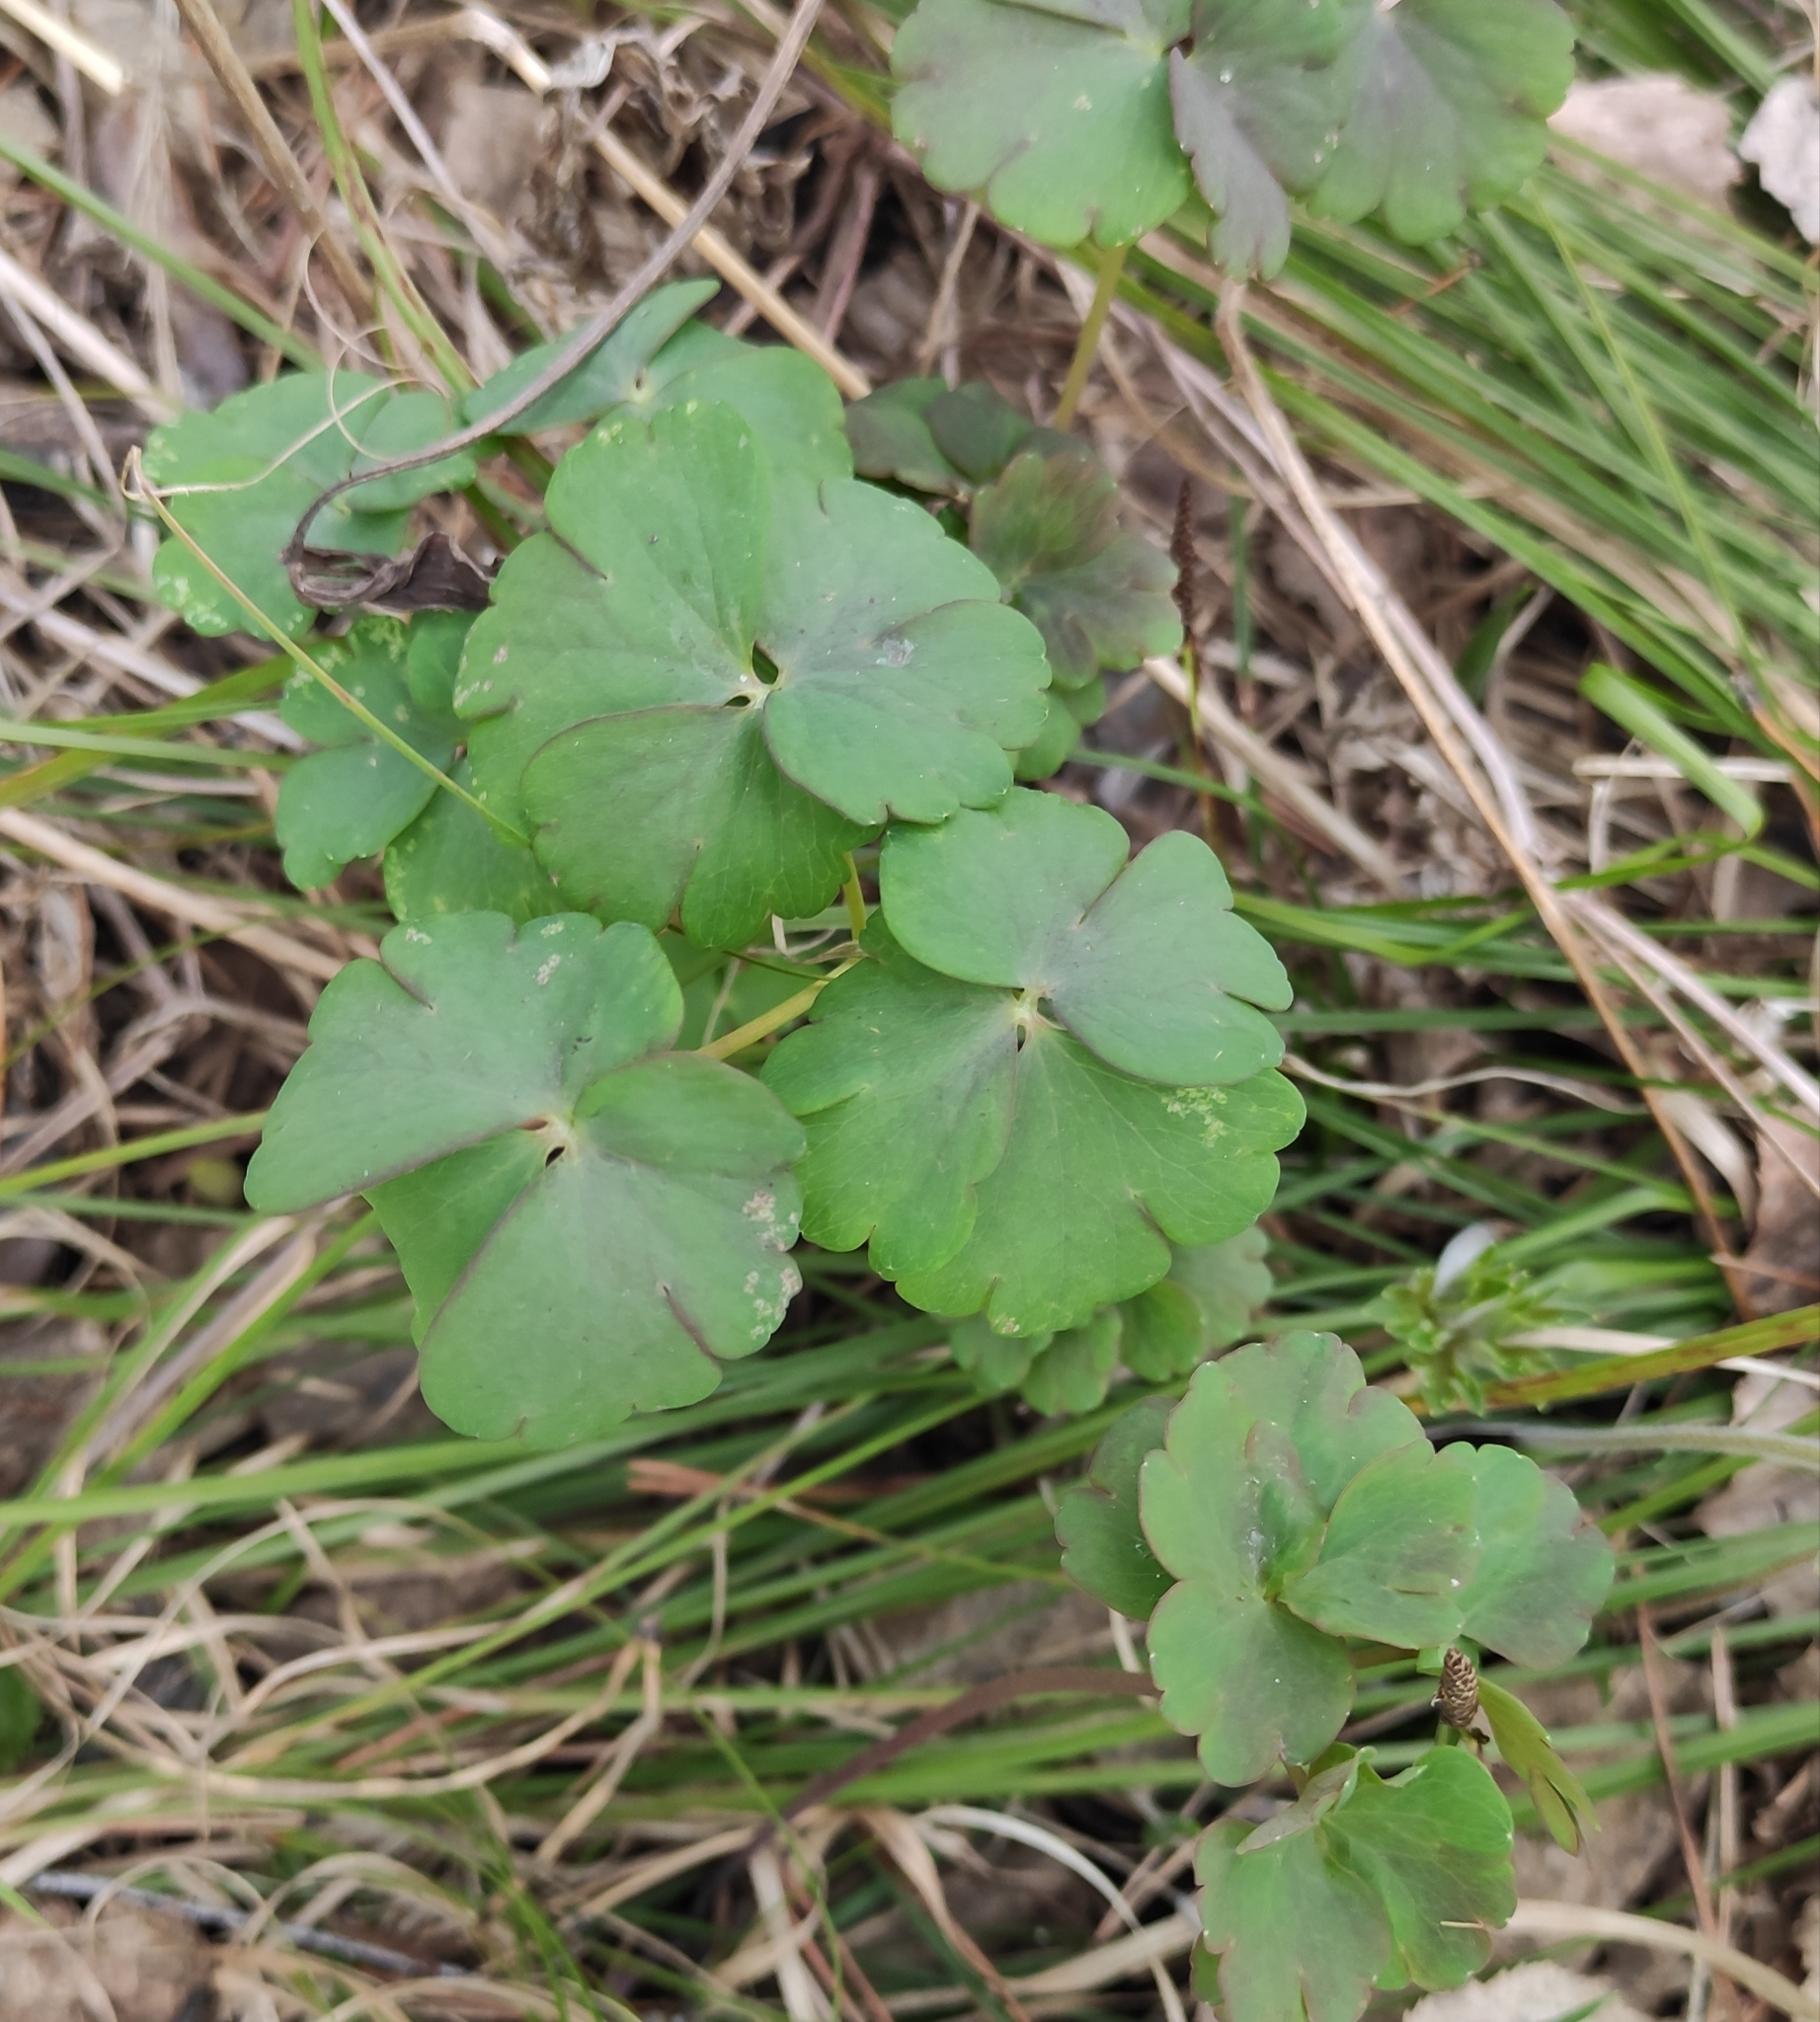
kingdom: Plantae
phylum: Tracheophyta
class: Magnoliopsida
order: Ranunculales
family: Ranunculaceae
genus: Aquilegia
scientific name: Aquilegia sibirica
